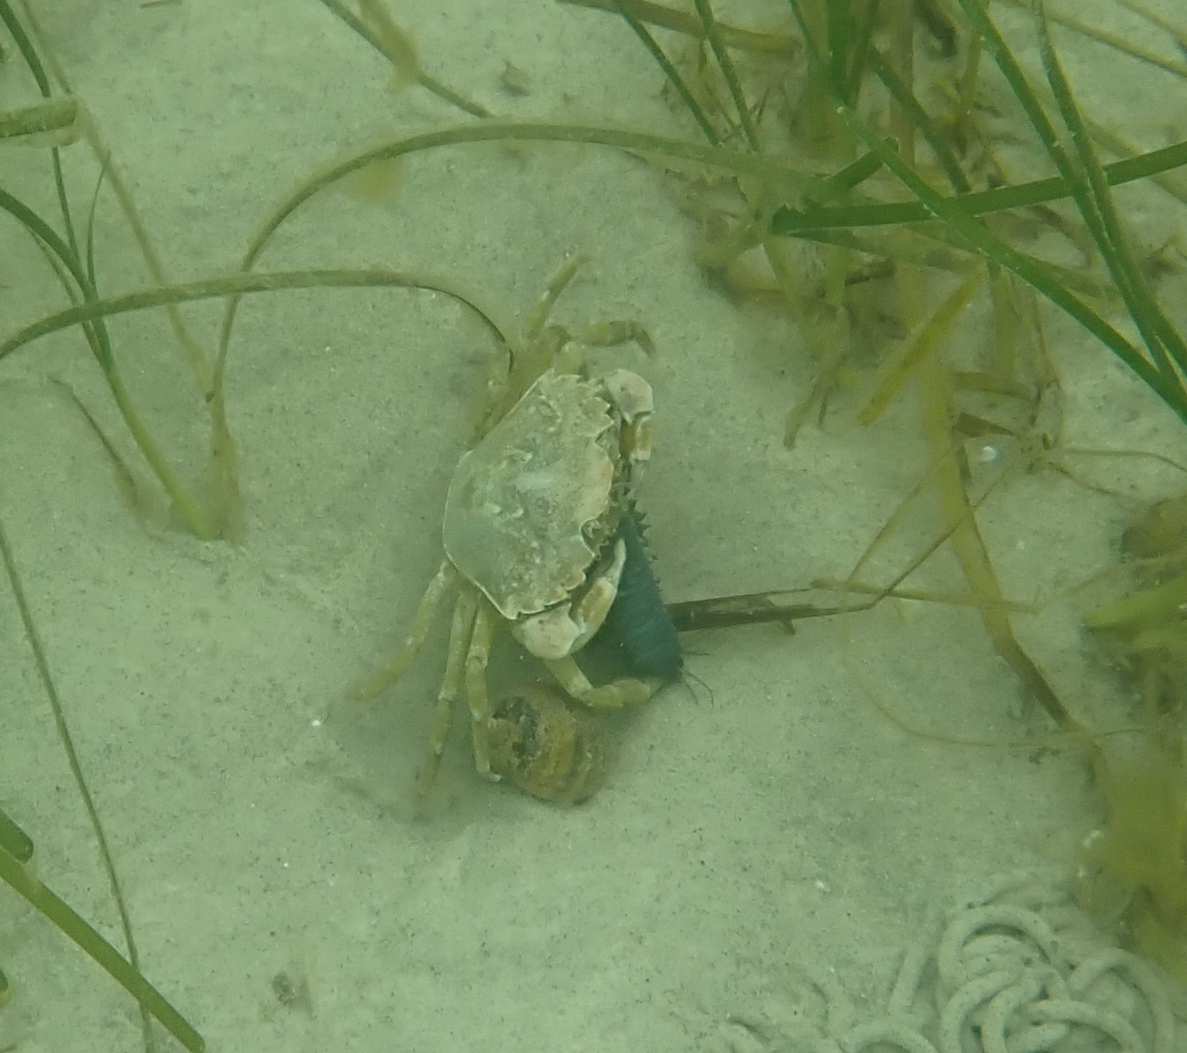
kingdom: Animalia
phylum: Arthropoda
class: Malacostraca
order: Decapoda
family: Carcinidae
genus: Carcinus
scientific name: Carcinus maenas
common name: European green crab
